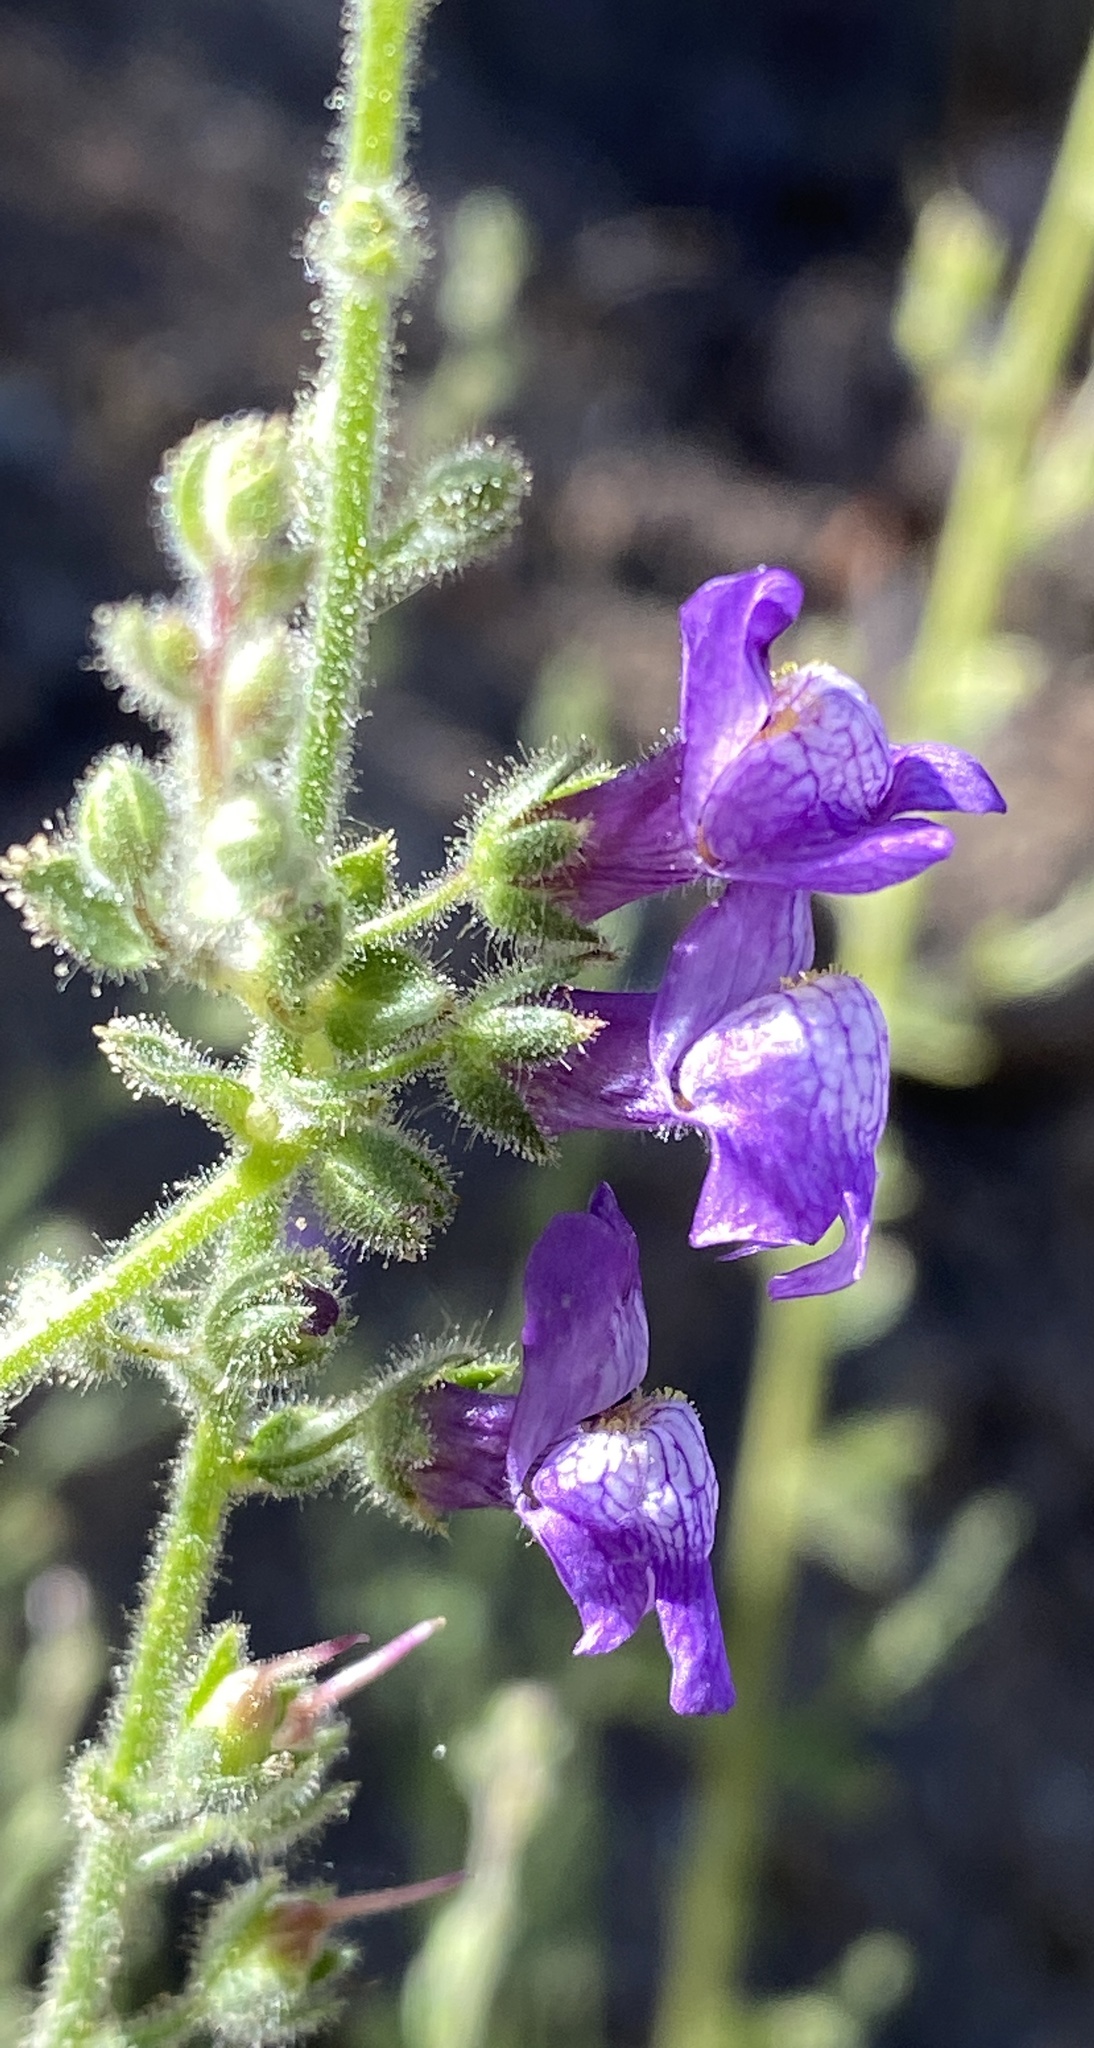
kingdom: Plantae
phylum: Tracheophyta
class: Magnoliopsida
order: Lamiales
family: Plantaginaceae
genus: Sairocarpus
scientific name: Sairocarpus nuttallianus
